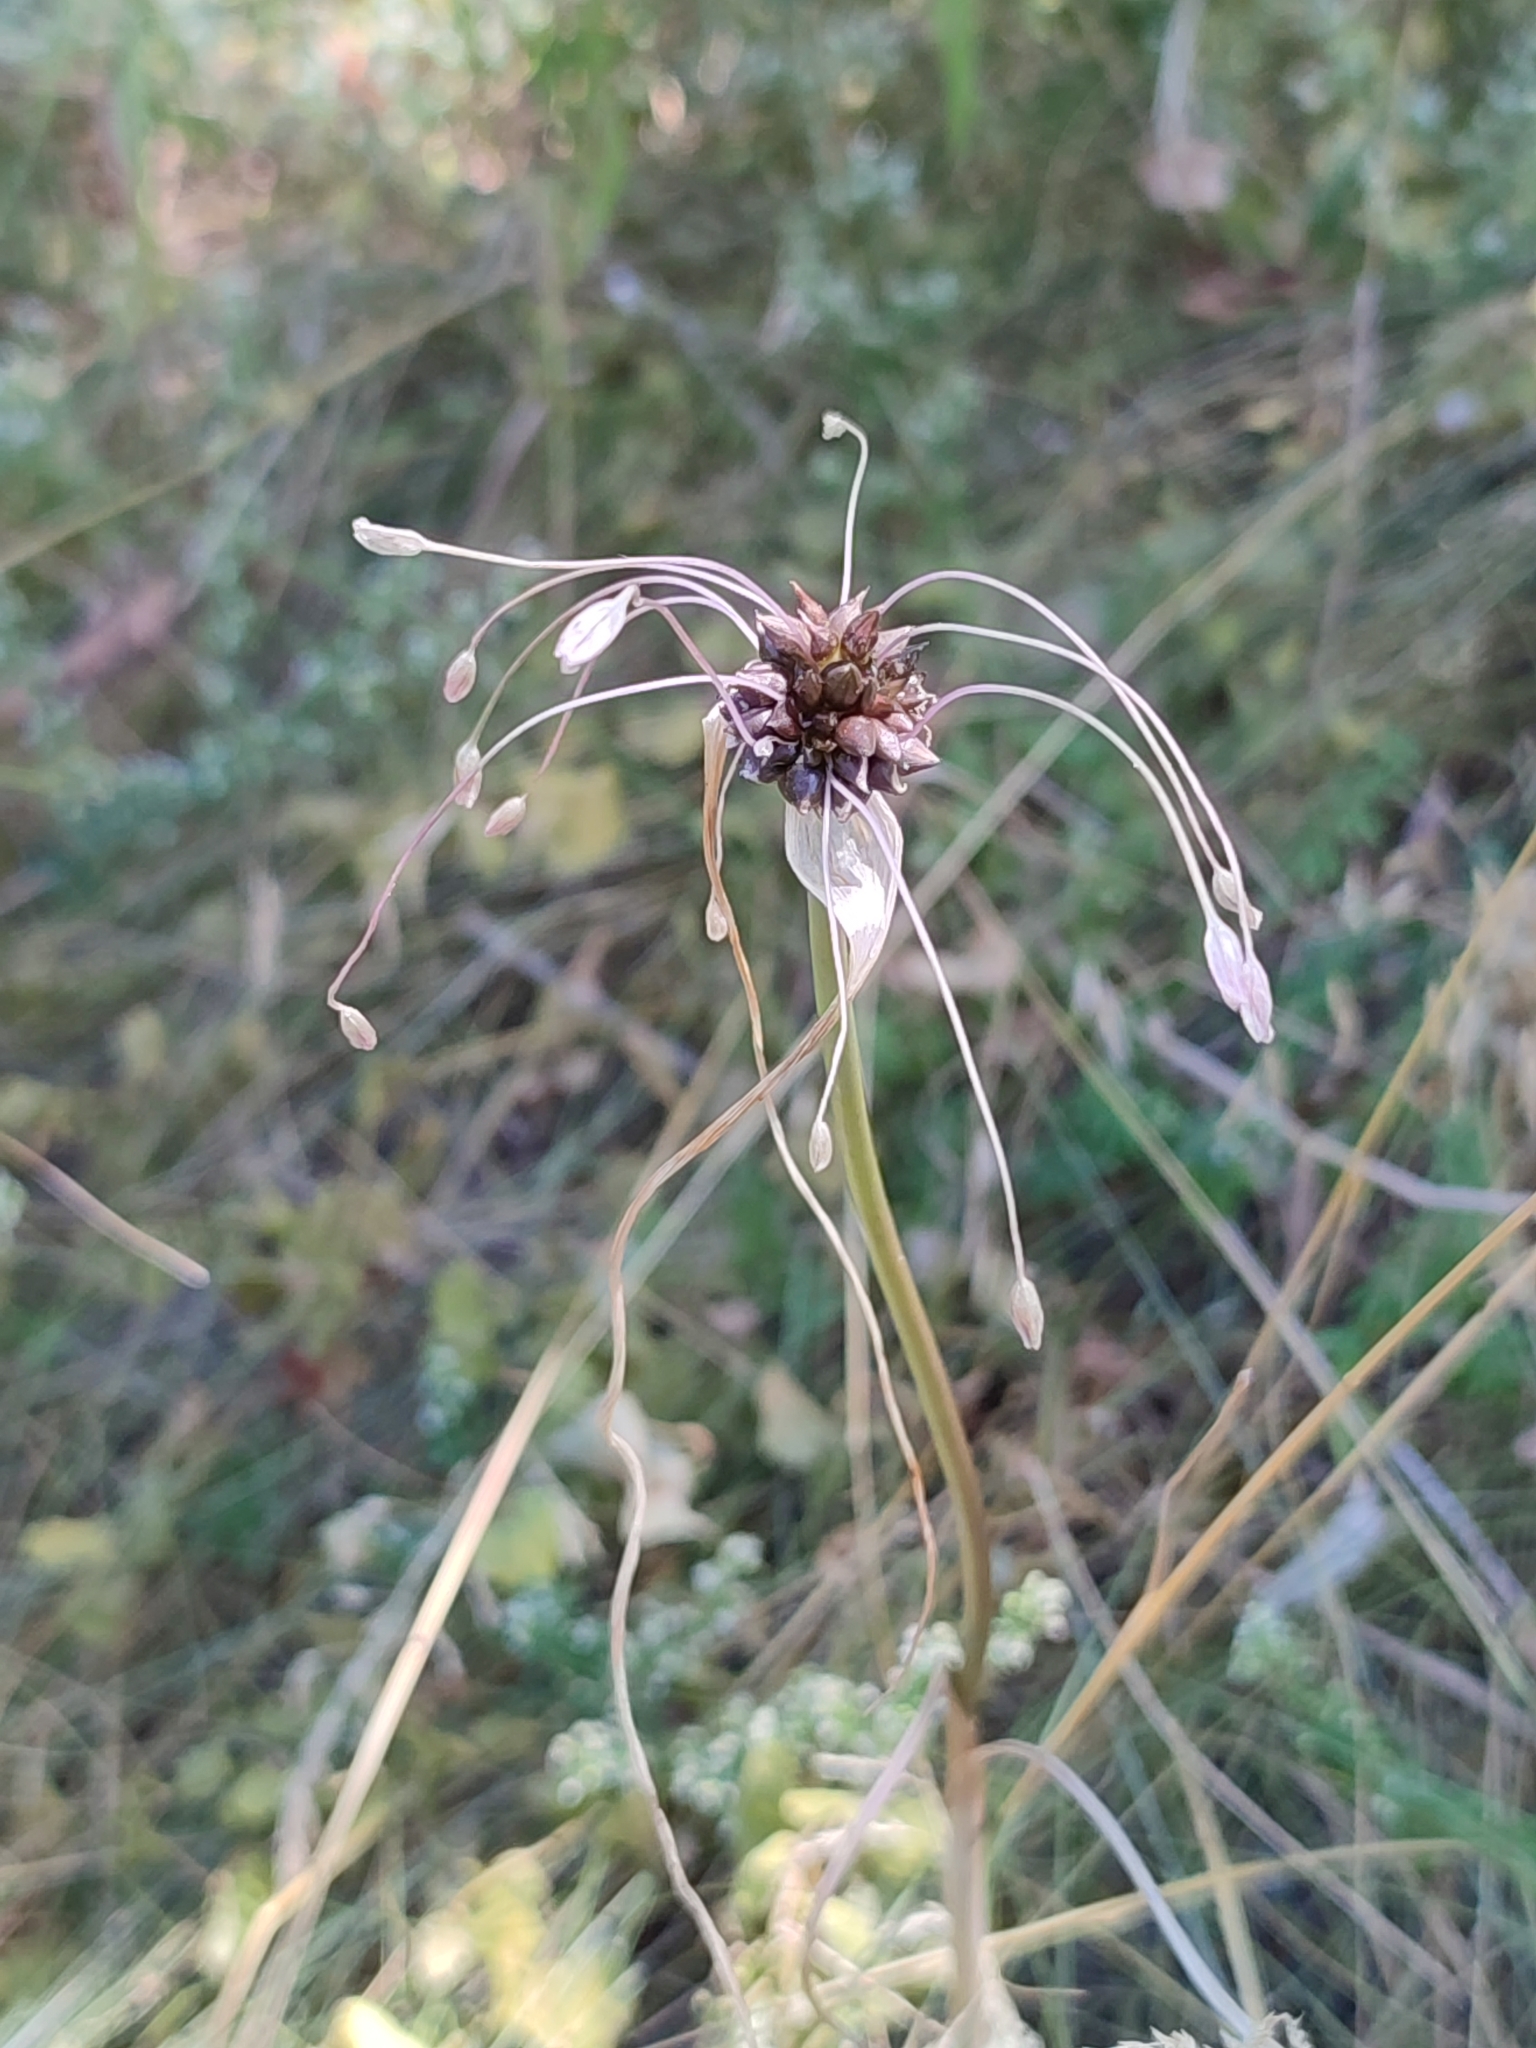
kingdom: Plantae
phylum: Tracheophyta
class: Liliopsida
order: Asparagales
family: Amaryllidaceae
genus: Allium
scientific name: Allium oleraceum
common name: Field garlic
